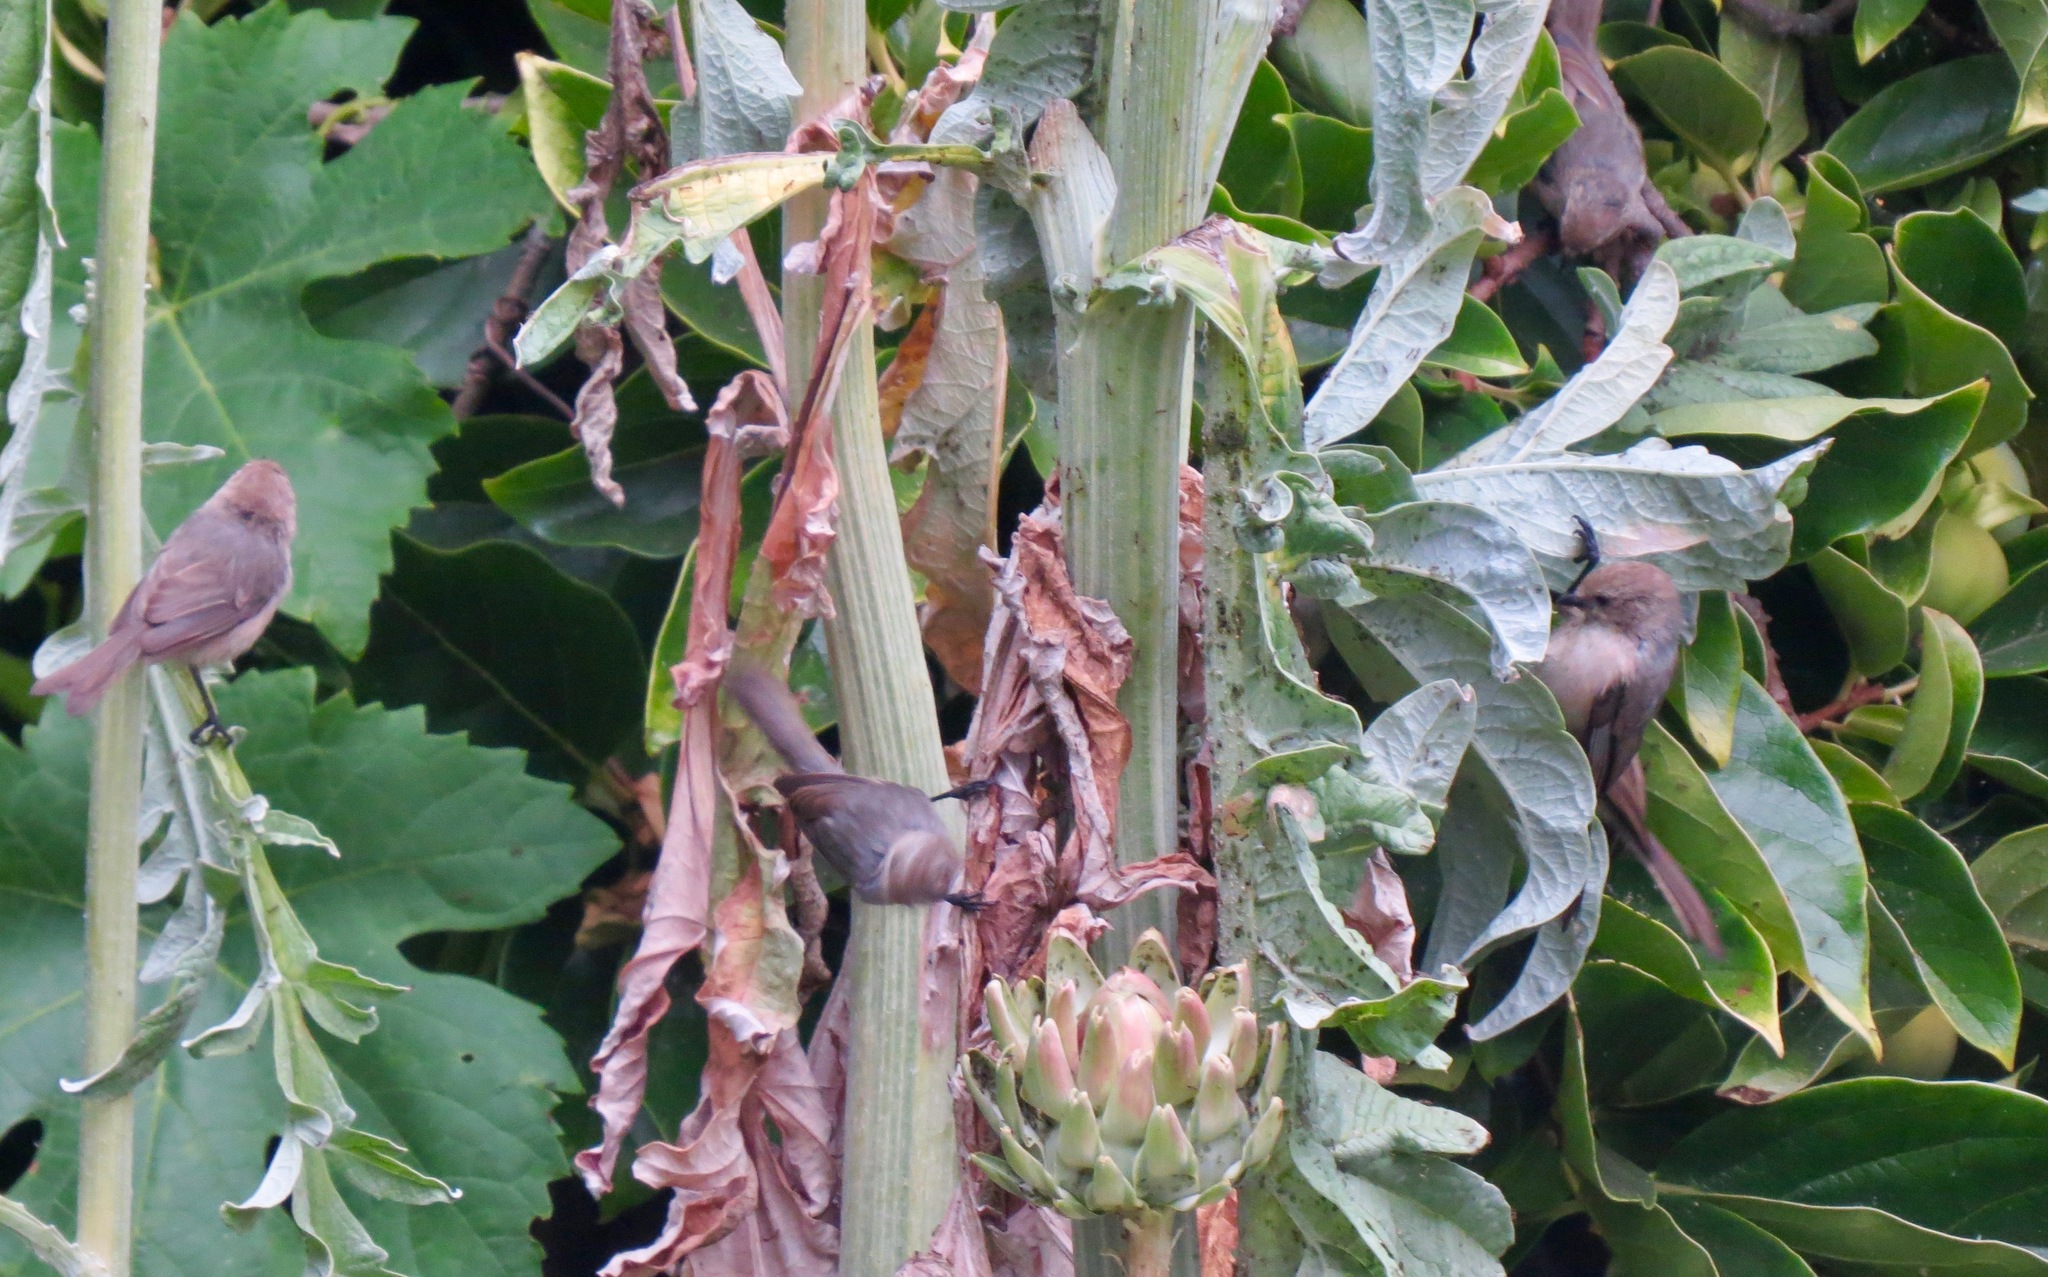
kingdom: Animalia
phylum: Chordata
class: Aves
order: Passeriformes
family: Aegithalidae
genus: Psaltriparus
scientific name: Psaltriparus minimus
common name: American bushtit
